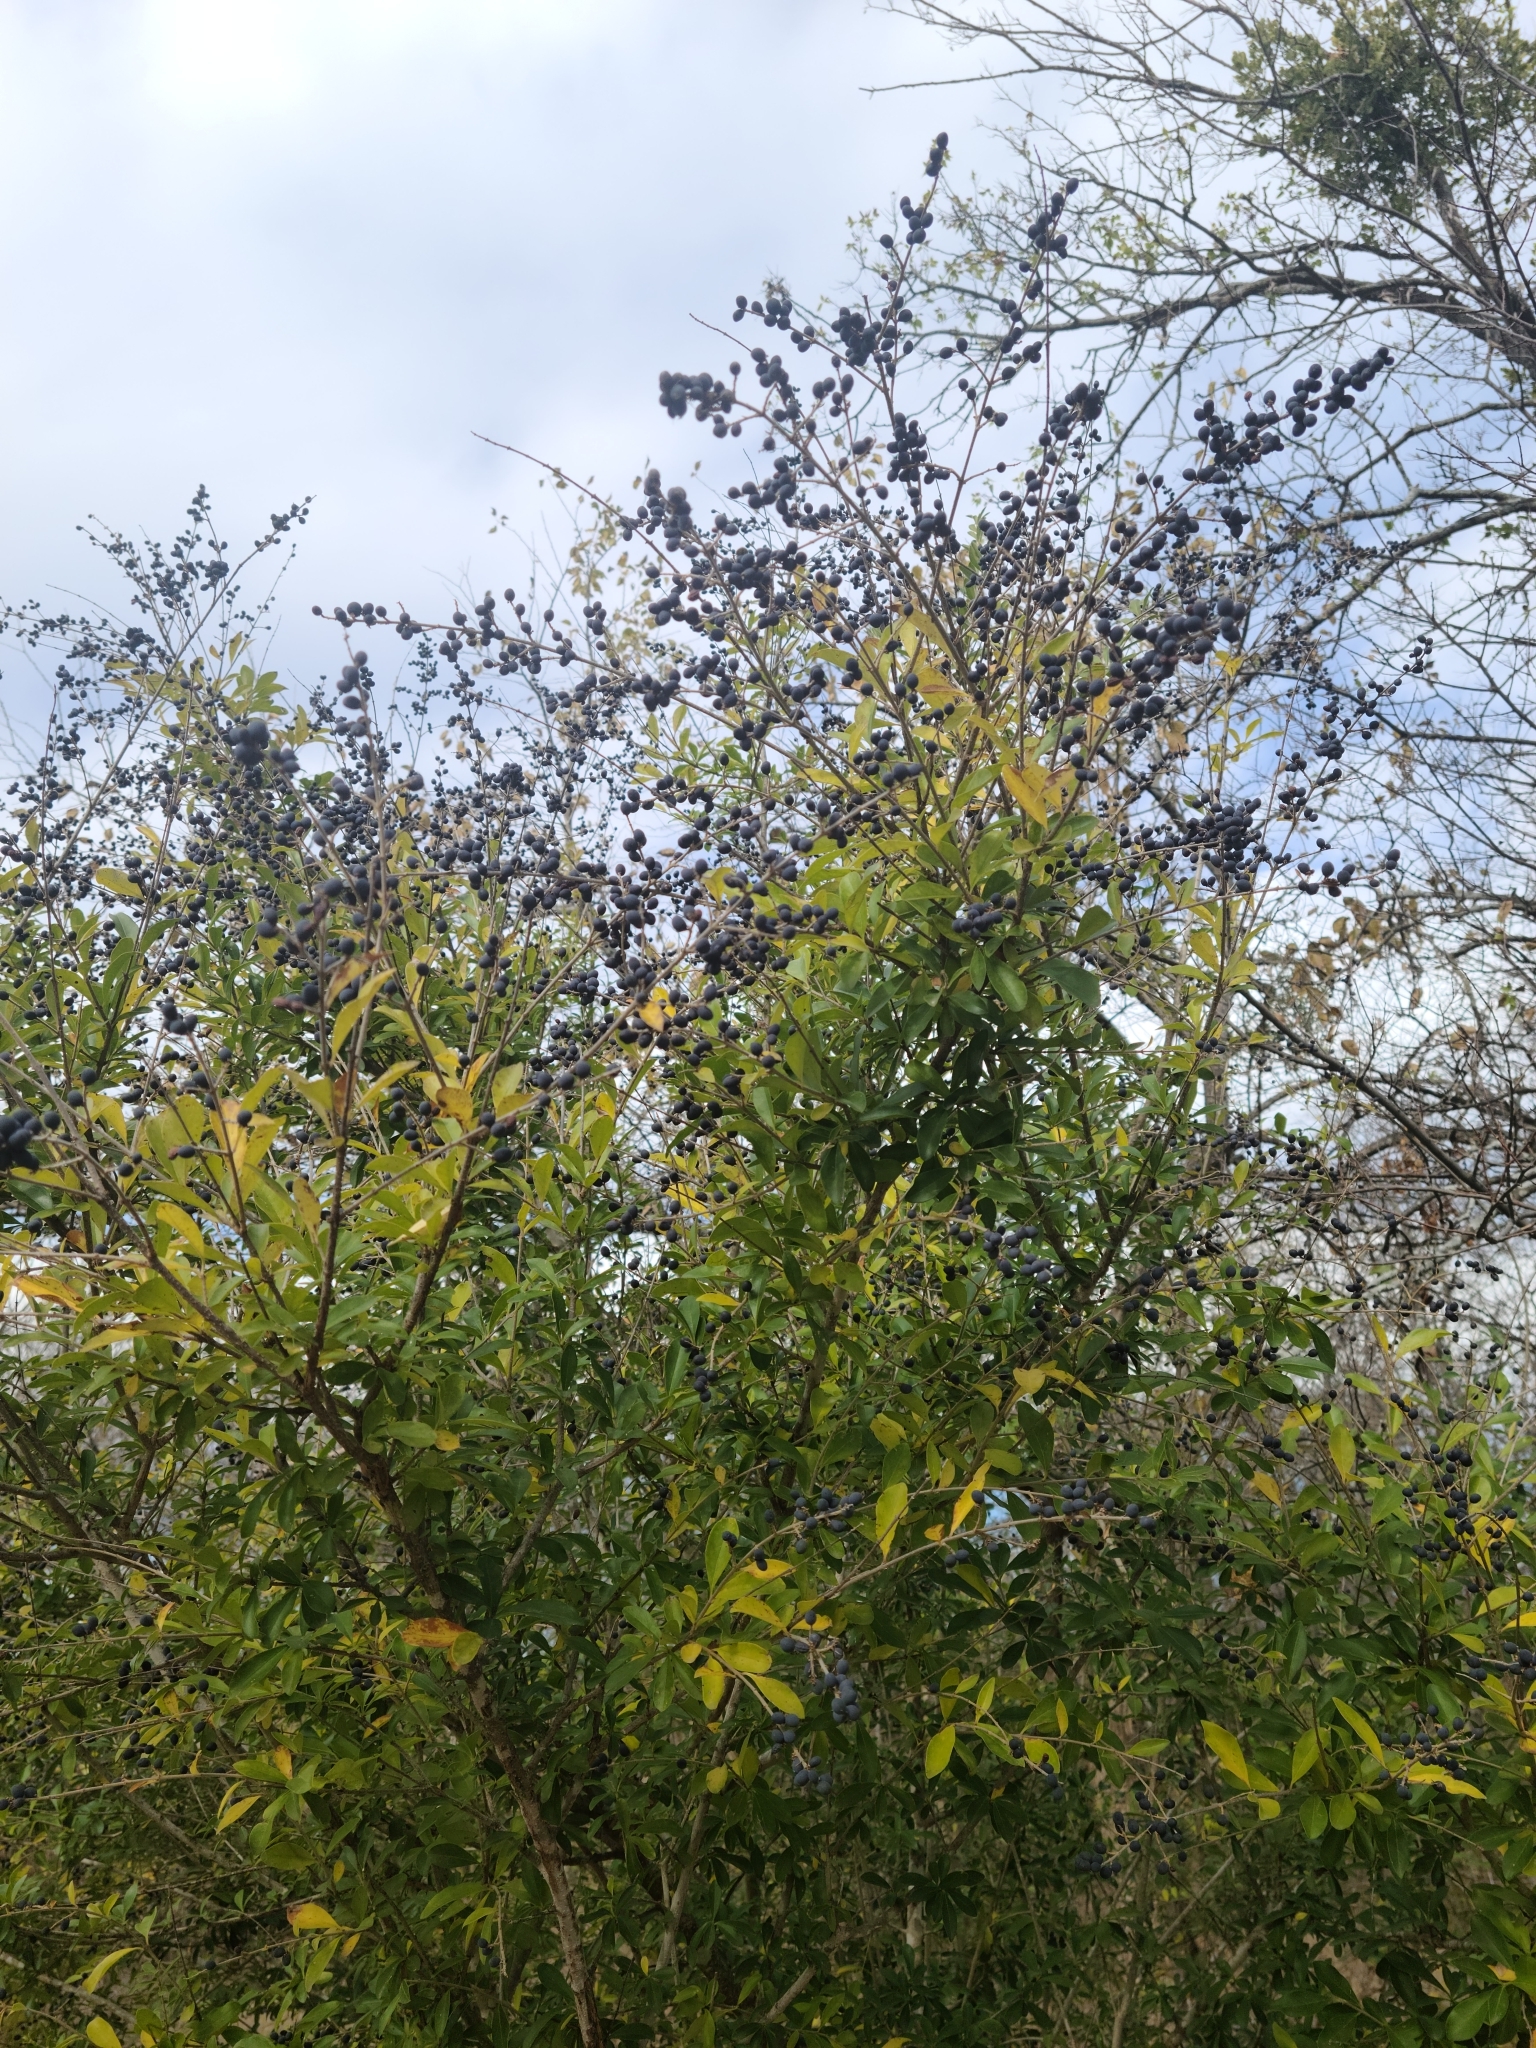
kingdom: Plantae
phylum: Tracheophyta
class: Magnoliopsida
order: Lamiales
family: Oleaceae
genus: Ligustrum
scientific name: Ligustrum quihoui
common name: Waxyleaf privet
